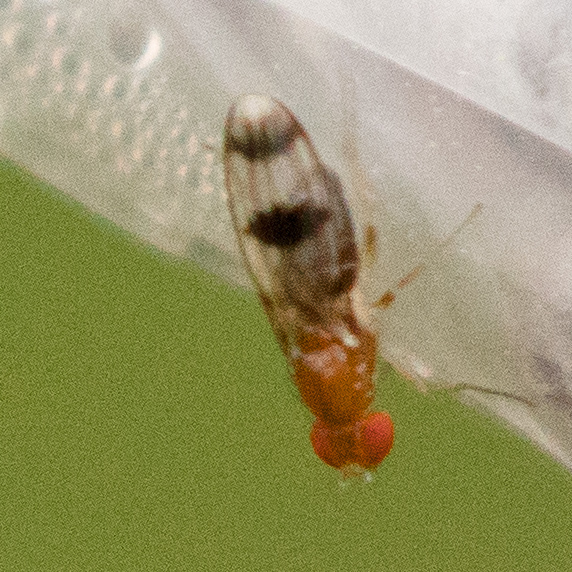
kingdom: Animalia
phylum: Arthropoda
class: Insecta
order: Diptera
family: Drosophilidae
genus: Chymomyza
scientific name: Chymomyza amoena
